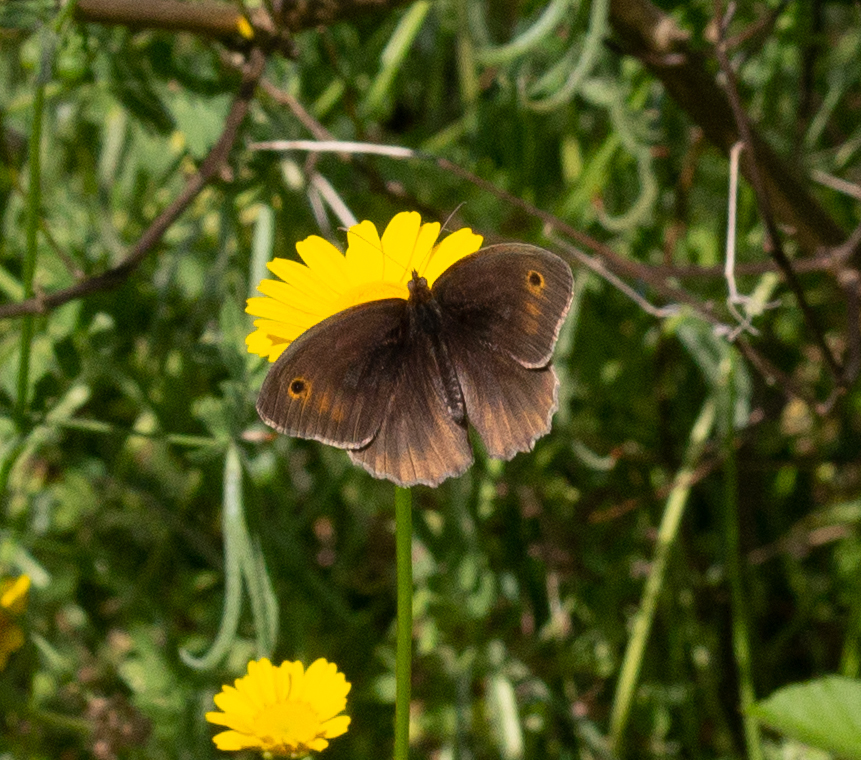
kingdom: Animalia
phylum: Arthropoda
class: Insecta
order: Lepidoptera
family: Nymphalidae
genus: Maniola
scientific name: Maniola jurtina
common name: Meadow brown
